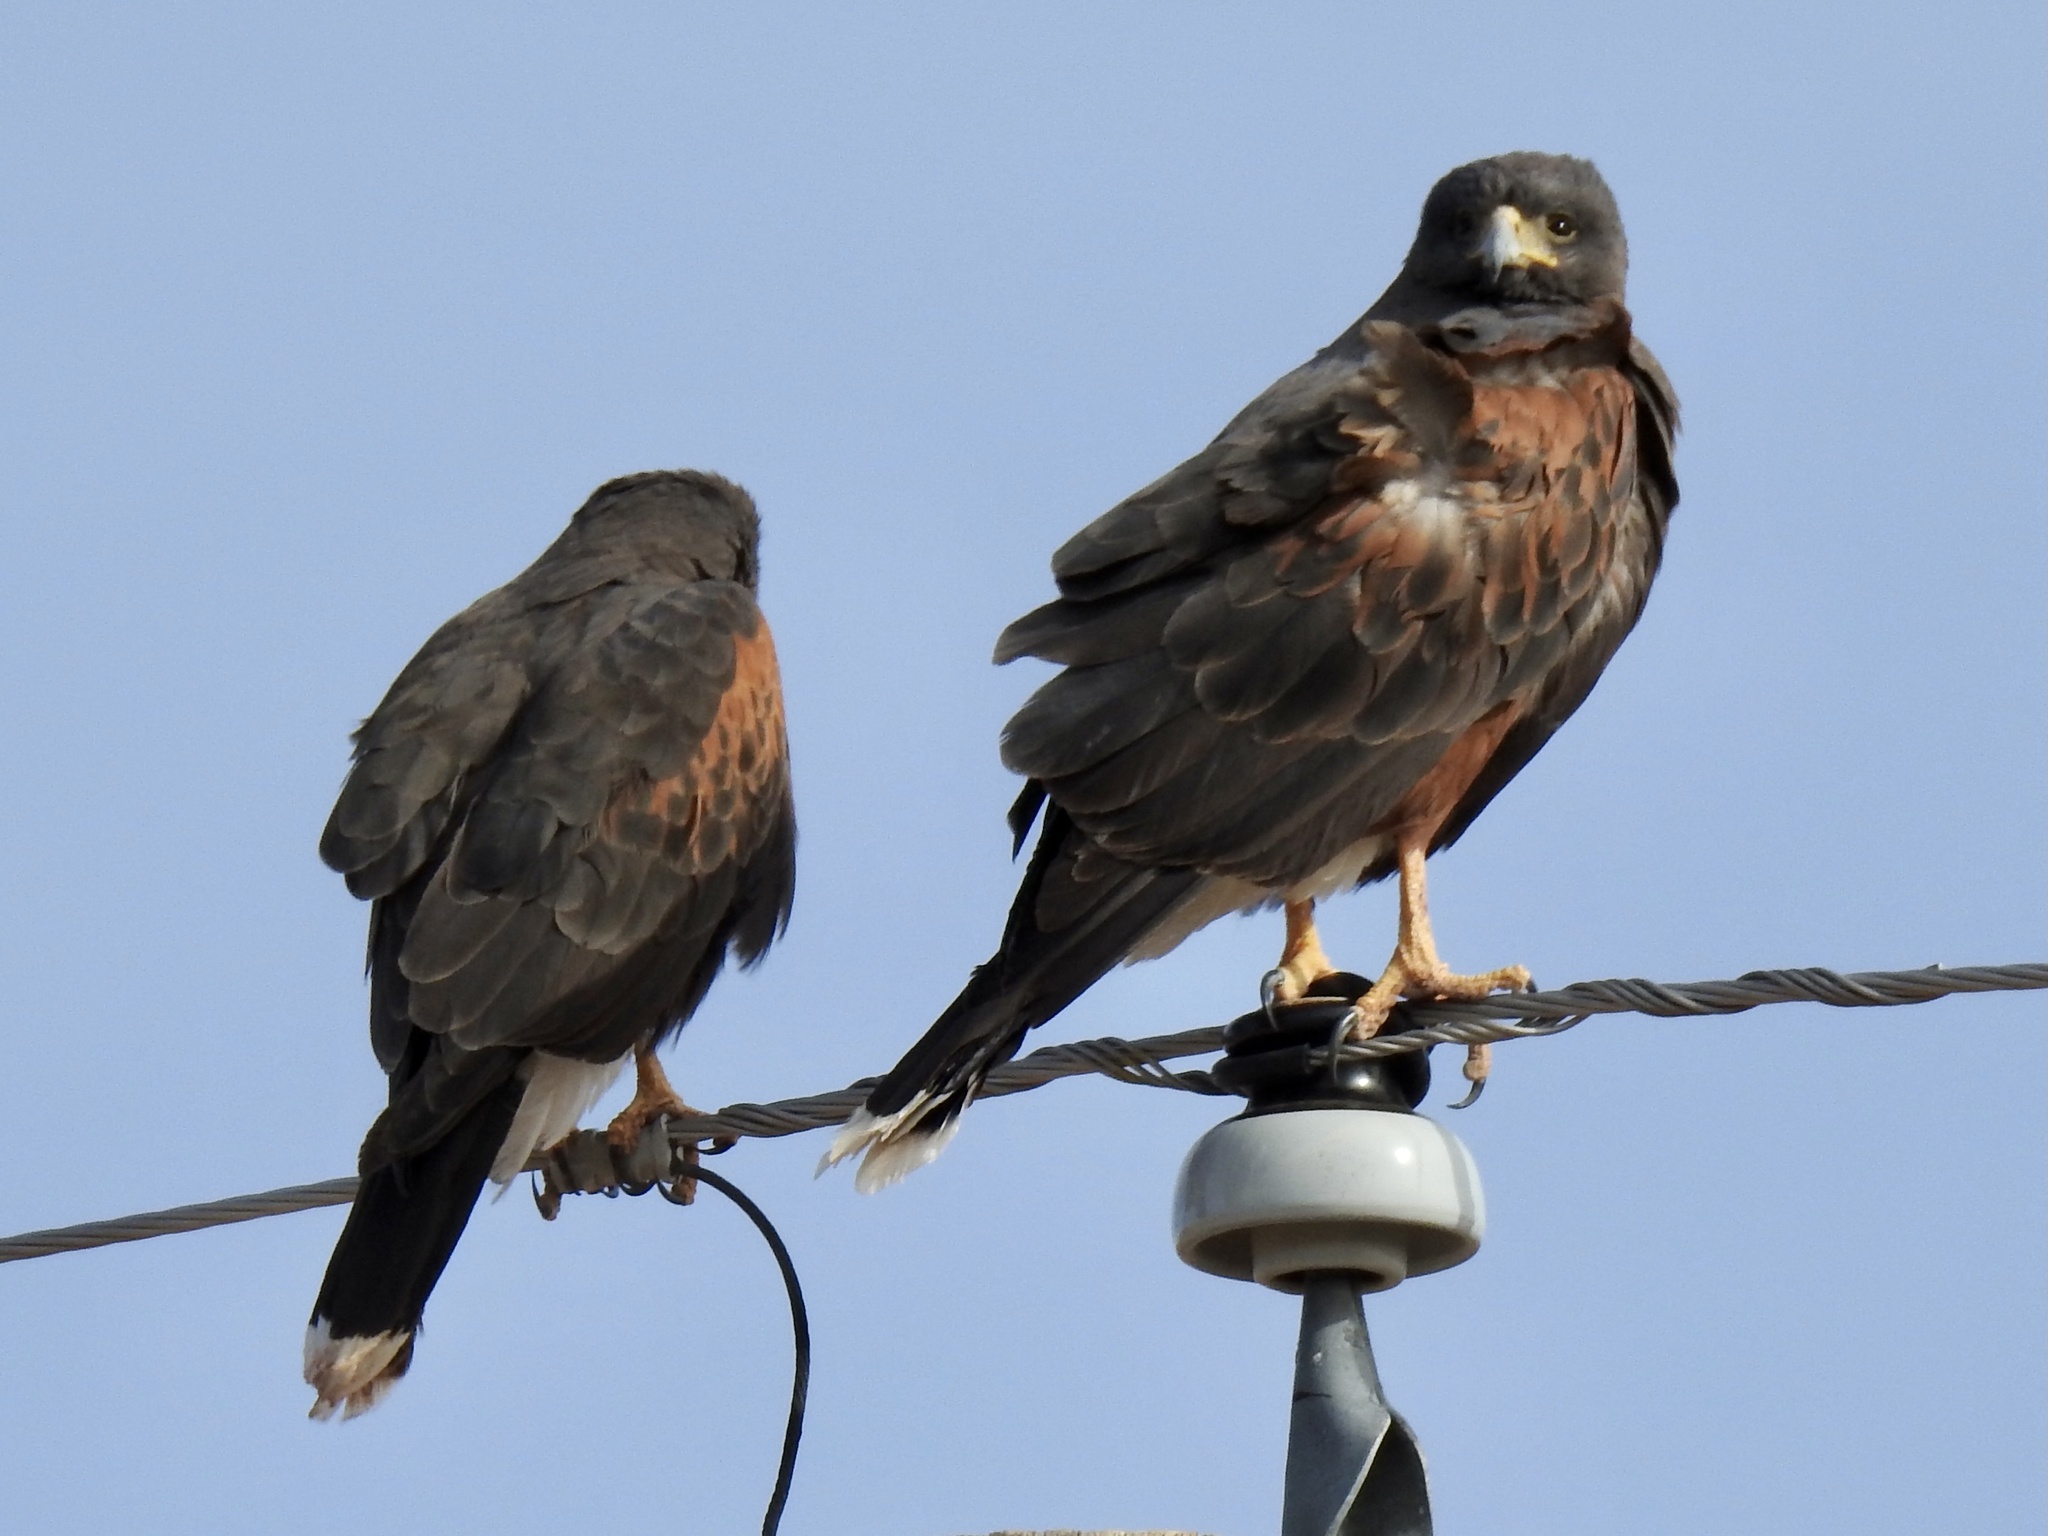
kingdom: Animalia
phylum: Chordata
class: Aves
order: Accipitriformes
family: Accipitridae
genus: Parabuteo
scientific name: Parabuteo unicinctus
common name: Harris's hawk
